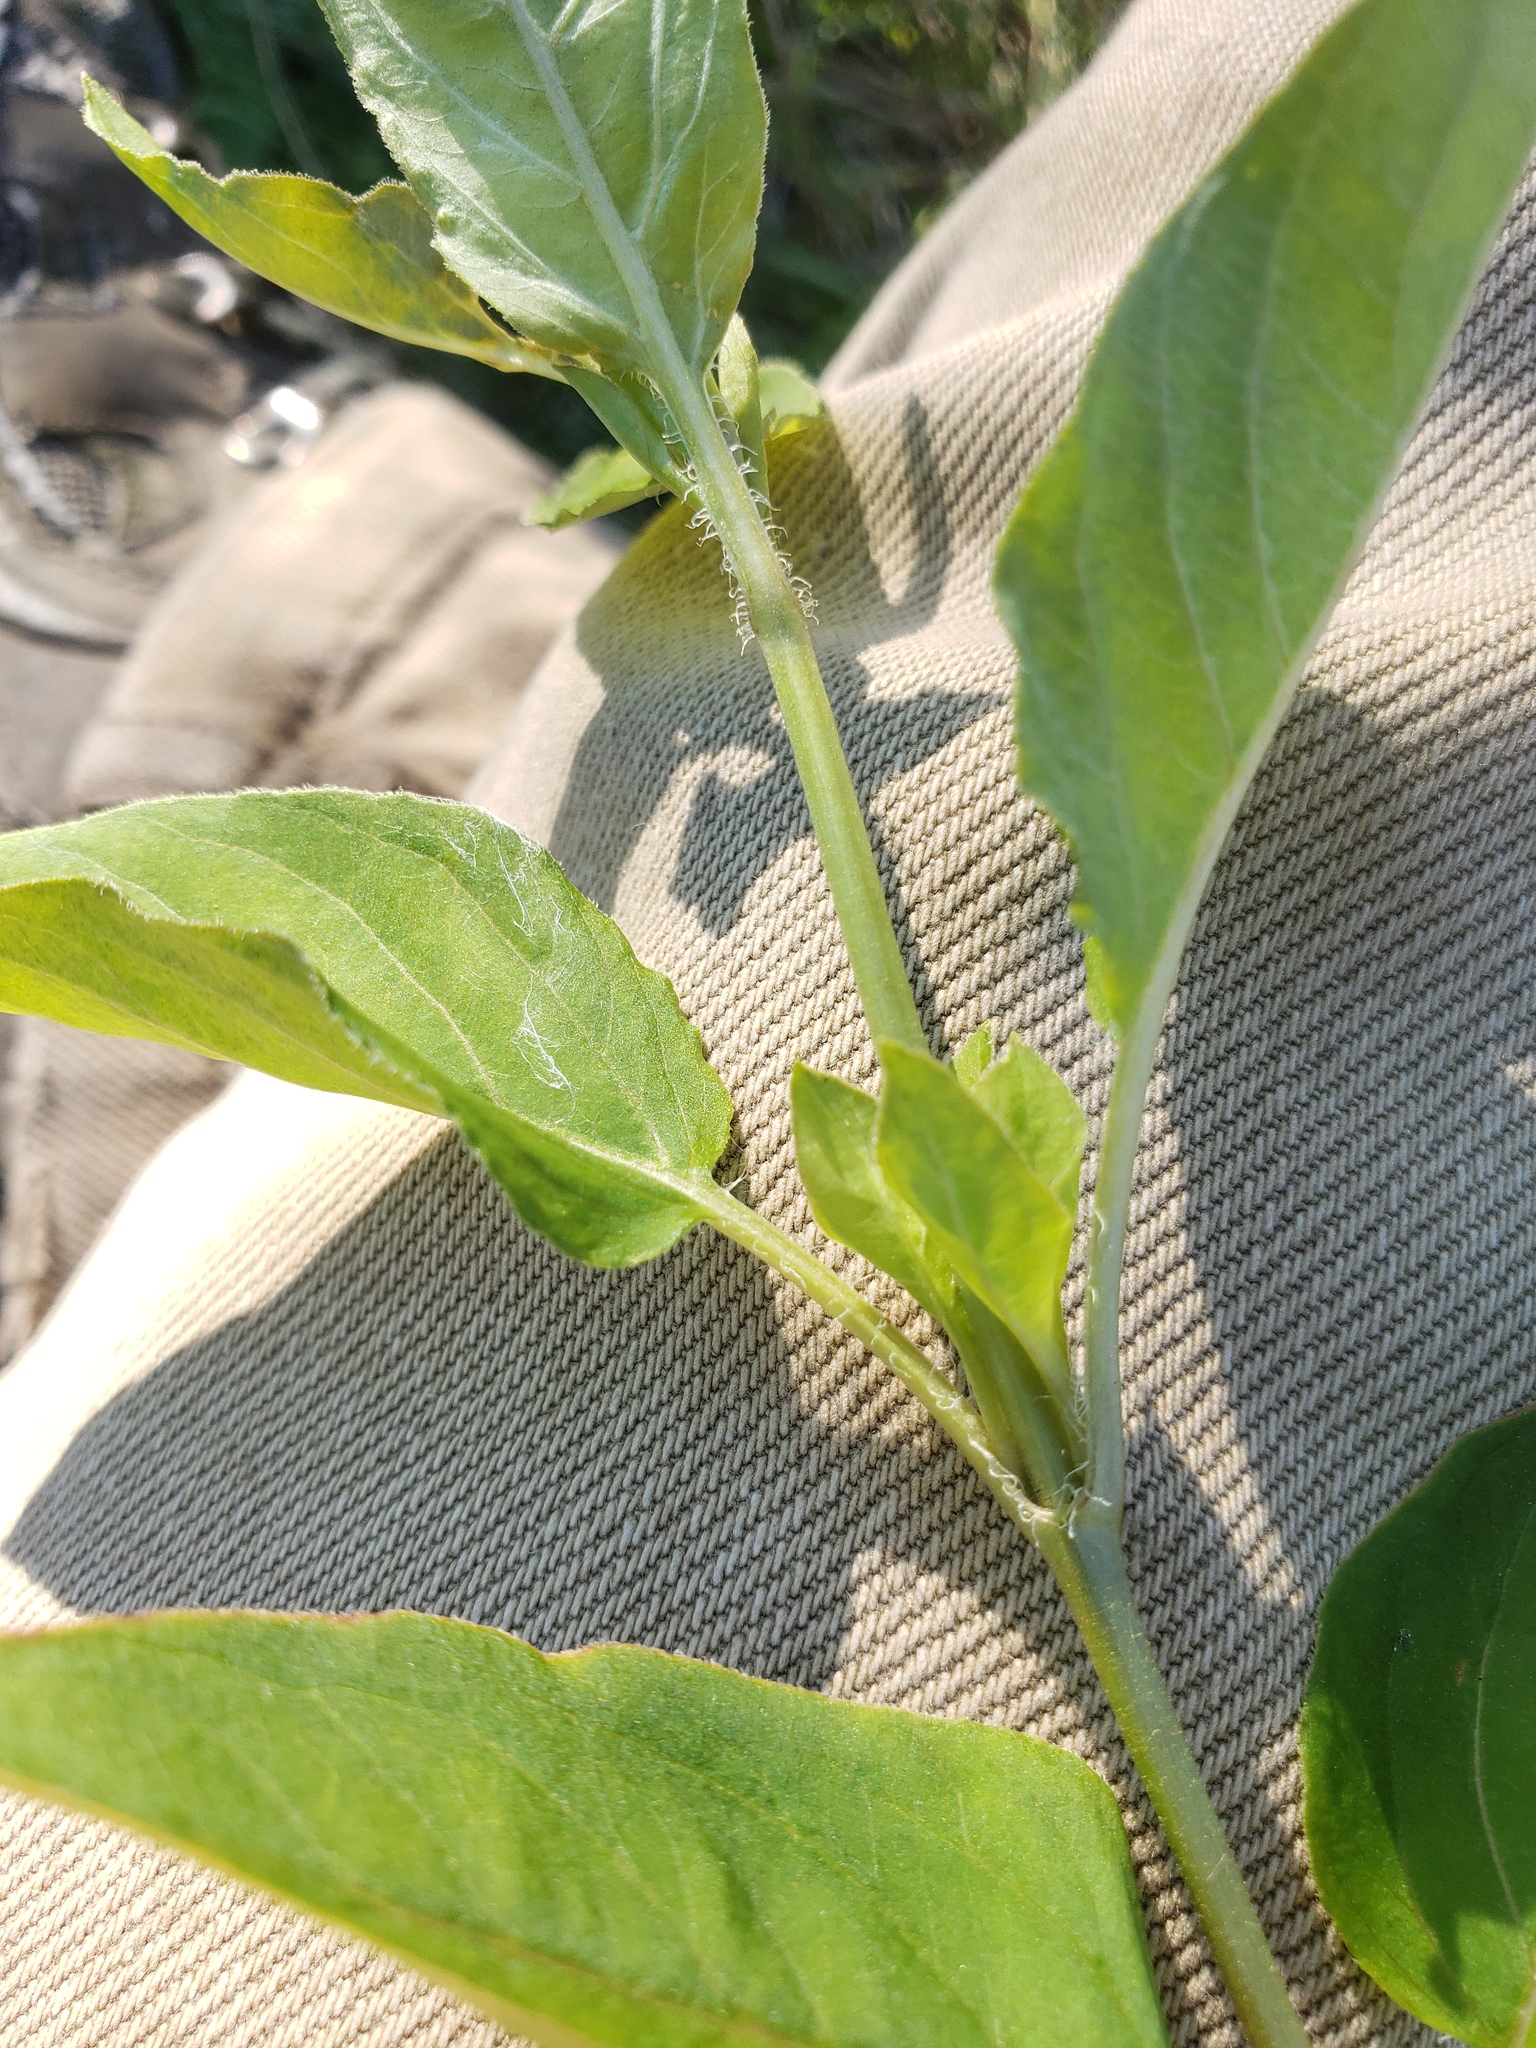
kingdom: Plantae
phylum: Tracheophyta
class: Magnoliopsida
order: Ericales
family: Primulaceae
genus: Lysimachia
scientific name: Lysimachia ciliata
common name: Fringed loosestrife
